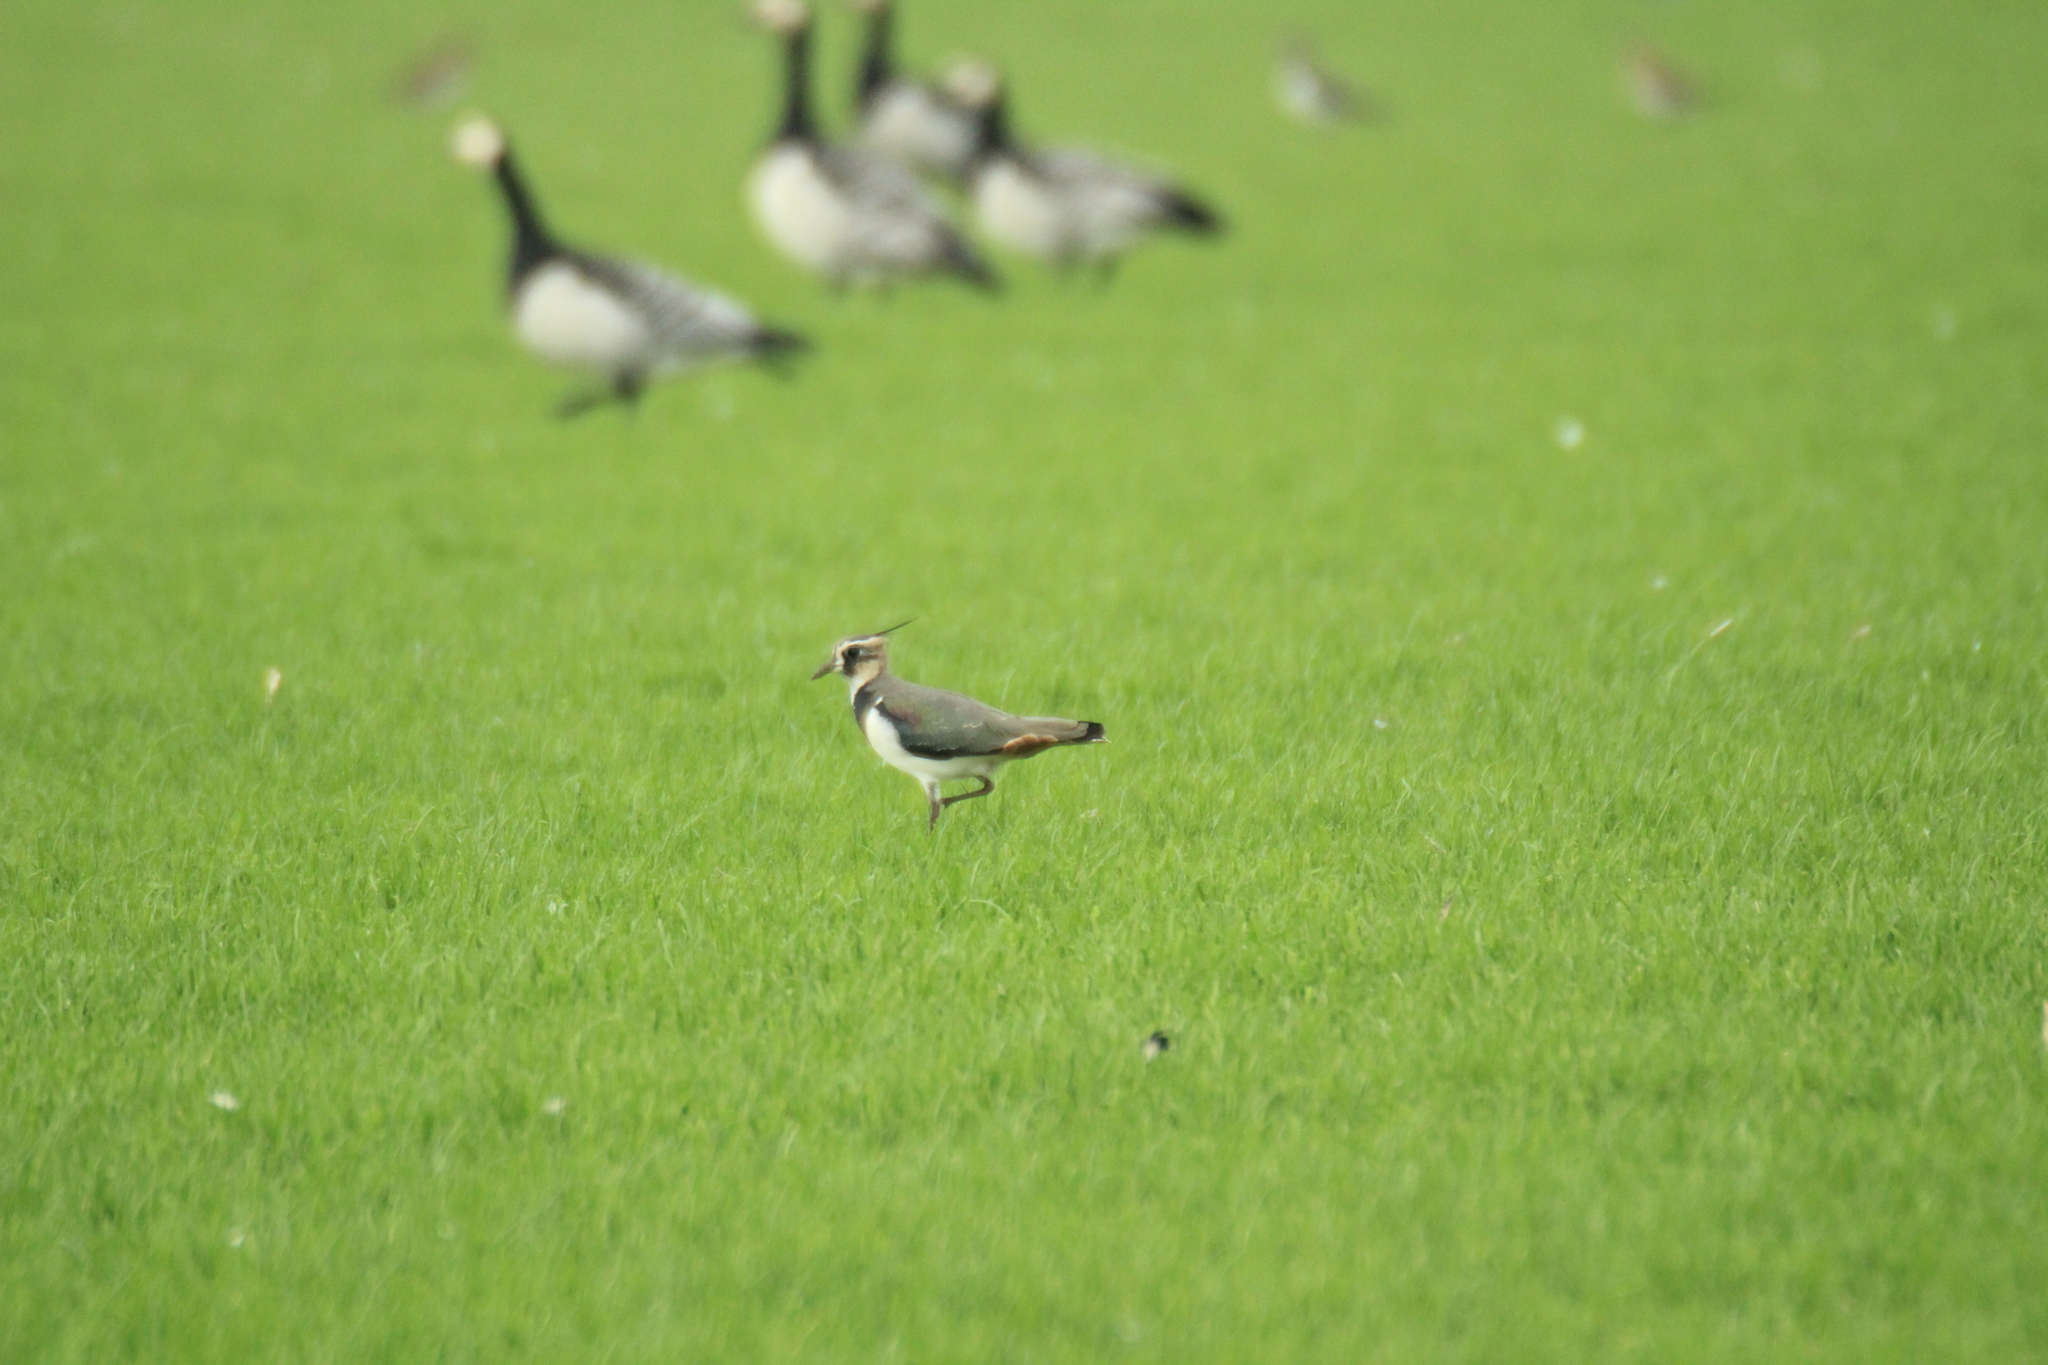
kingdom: Animalia
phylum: Chordata
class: Aves
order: Charadriiformes
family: Charadriidae
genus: Vanellus
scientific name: Vanellus vanellus
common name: Northern lapwing
